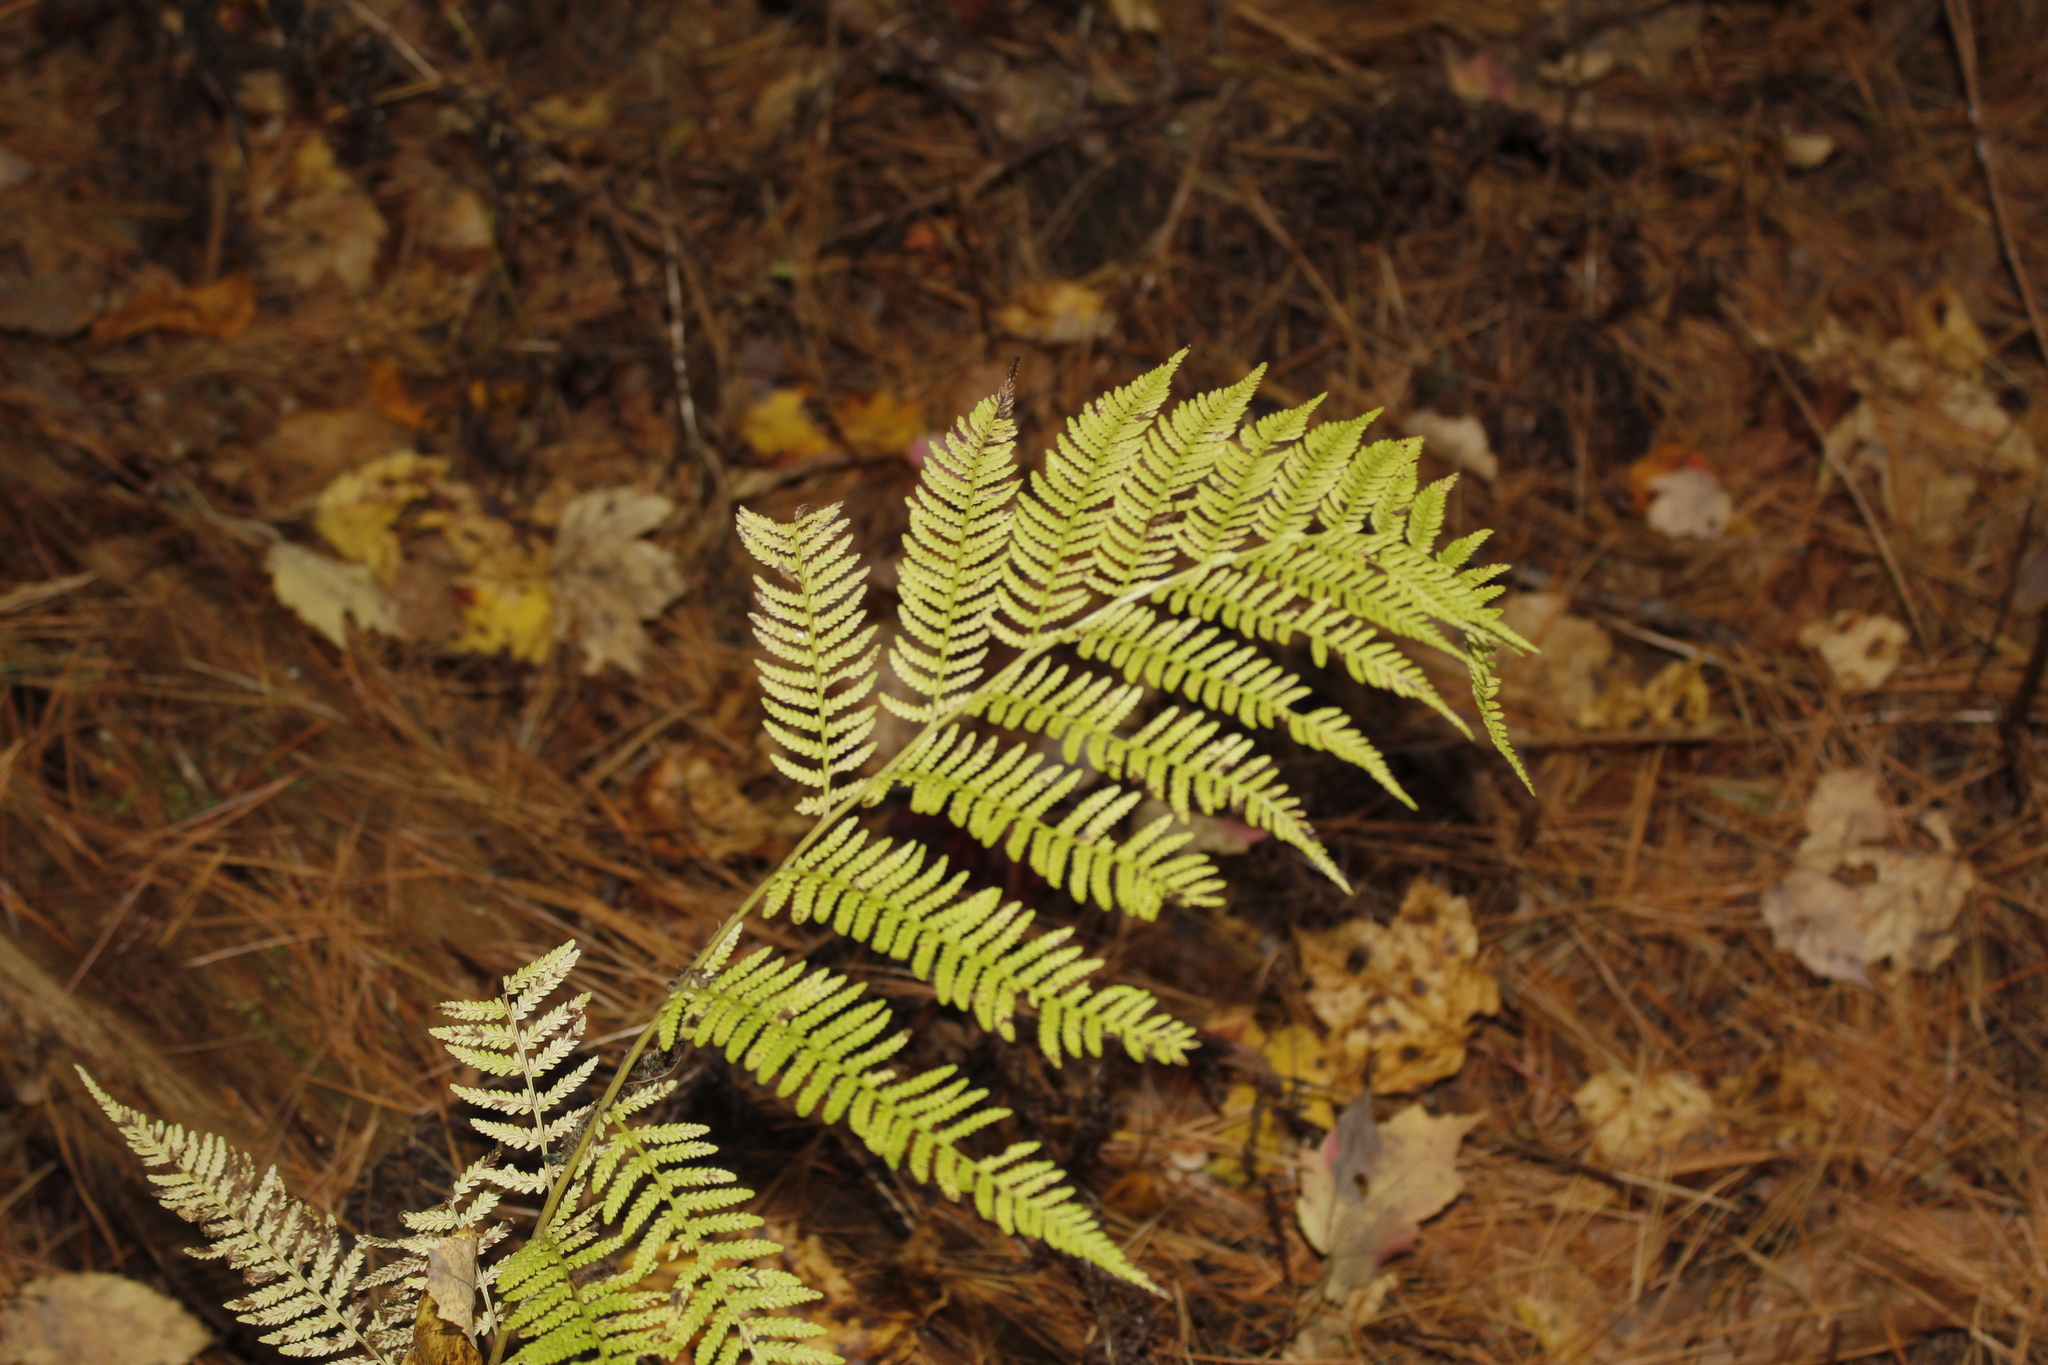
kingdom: Plantae
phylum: Tracheophyta
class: Polypodiopsida
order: Polypodiales
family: Athyriaceae
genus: Athyrium
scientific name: Athyrium angustum
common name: Northern lady fern
